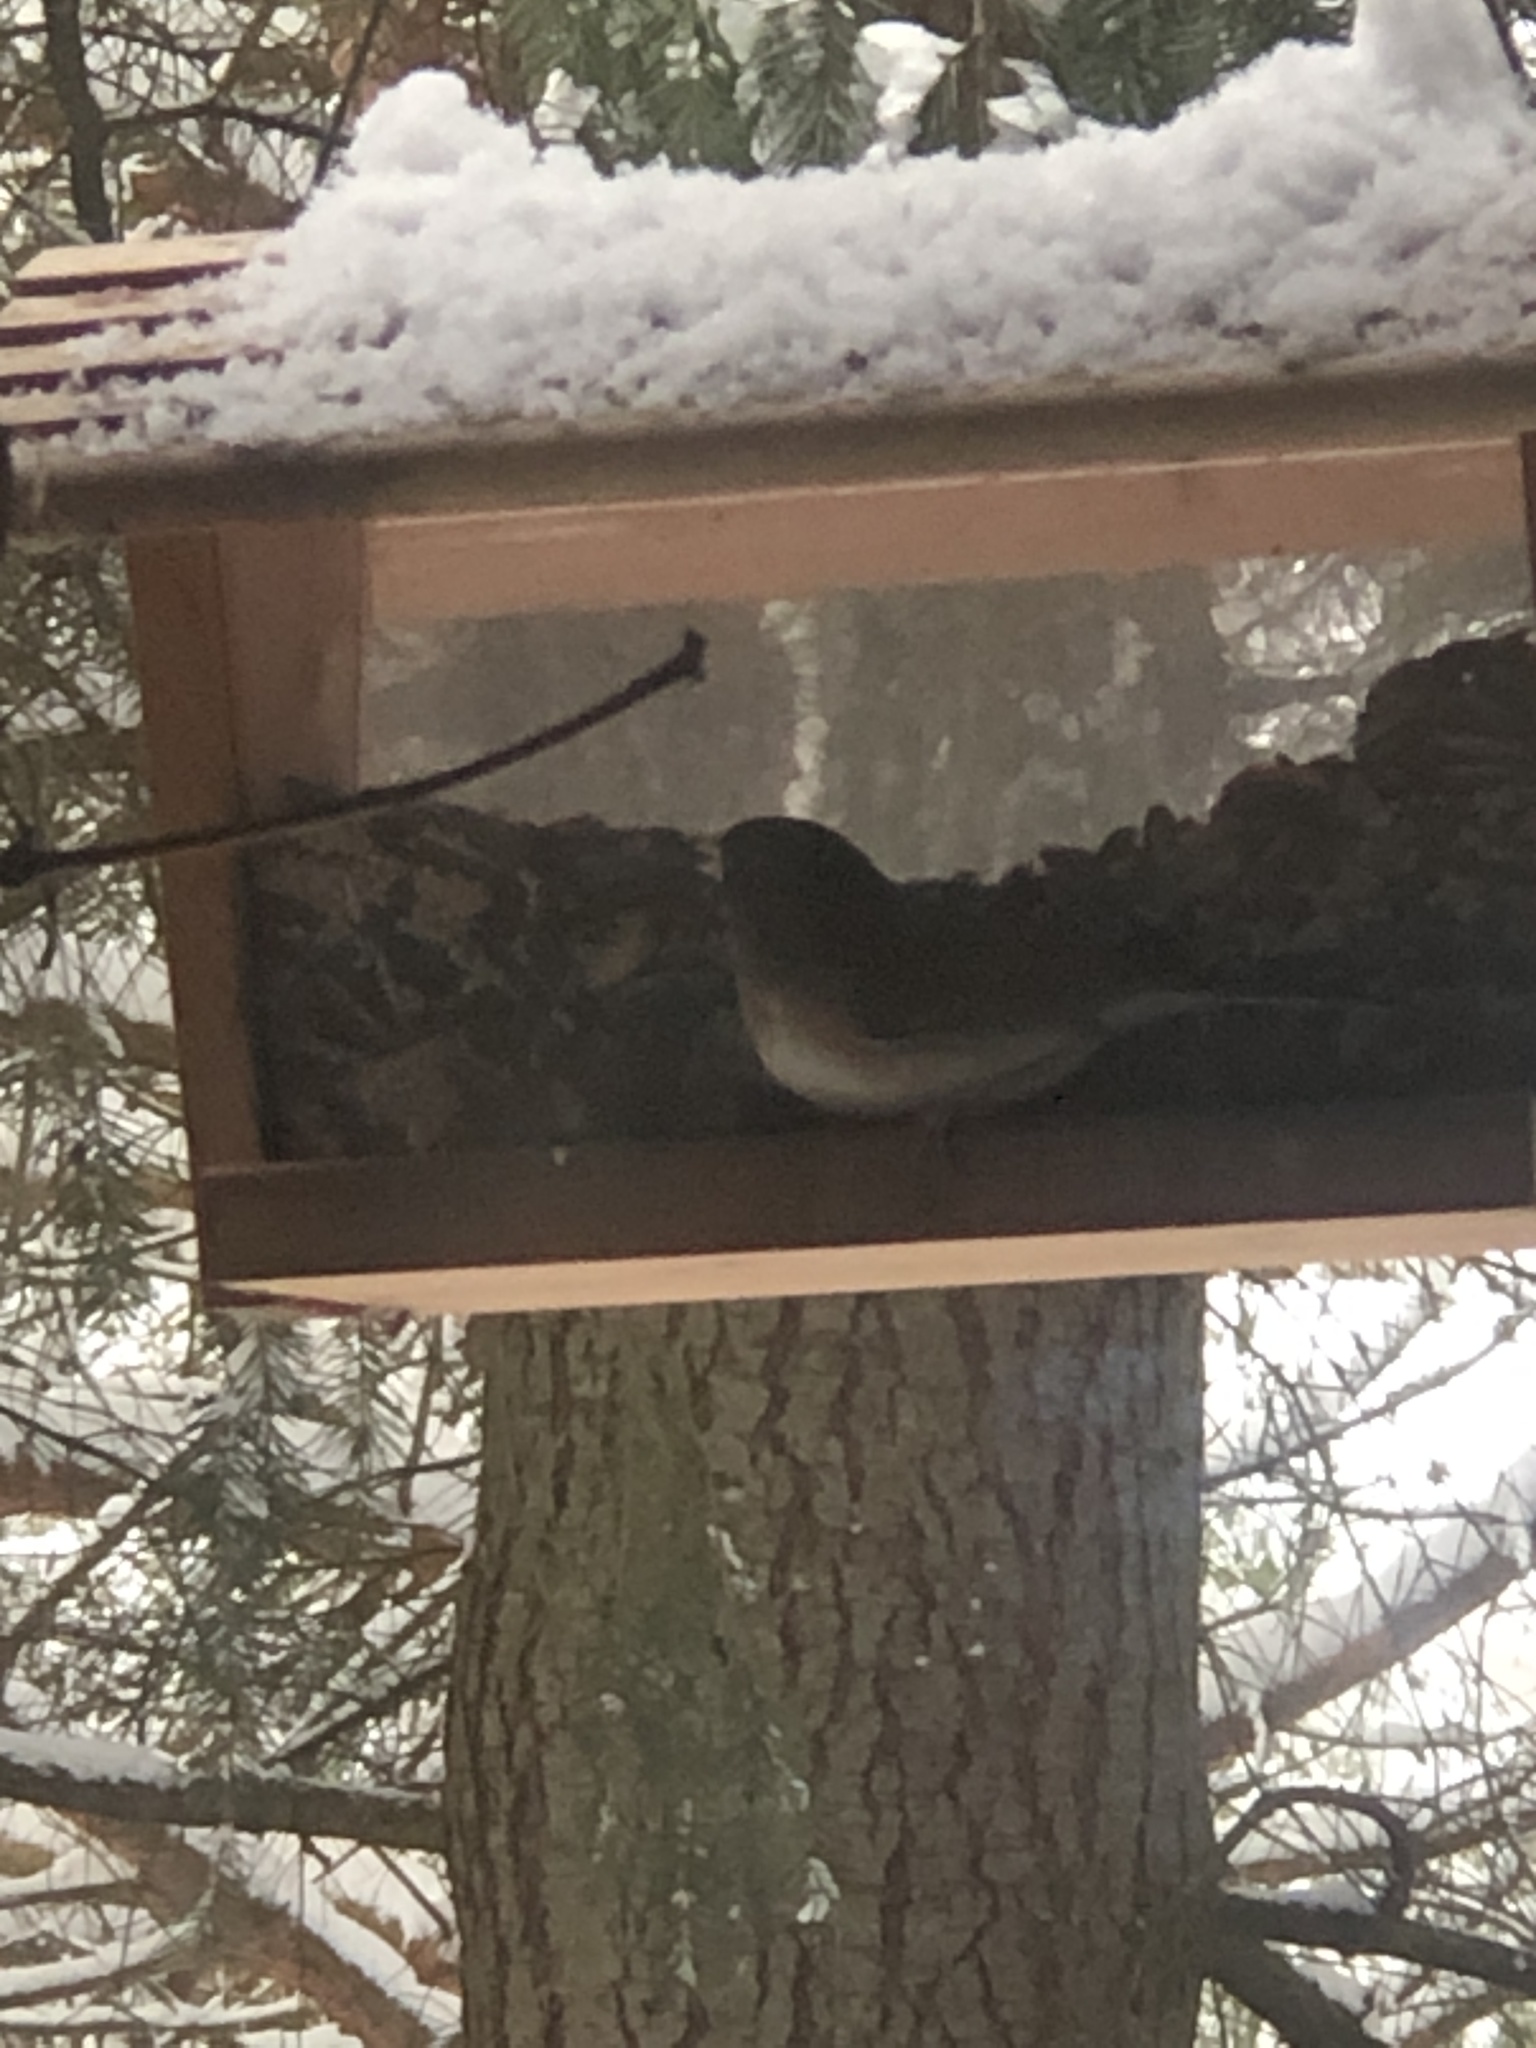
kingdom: Animalia
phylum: Chordata
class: Aves
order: Passeriformes
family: Passerellidae
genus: Junco
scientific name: Junco hyemalis
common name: Dark-eyed junco
